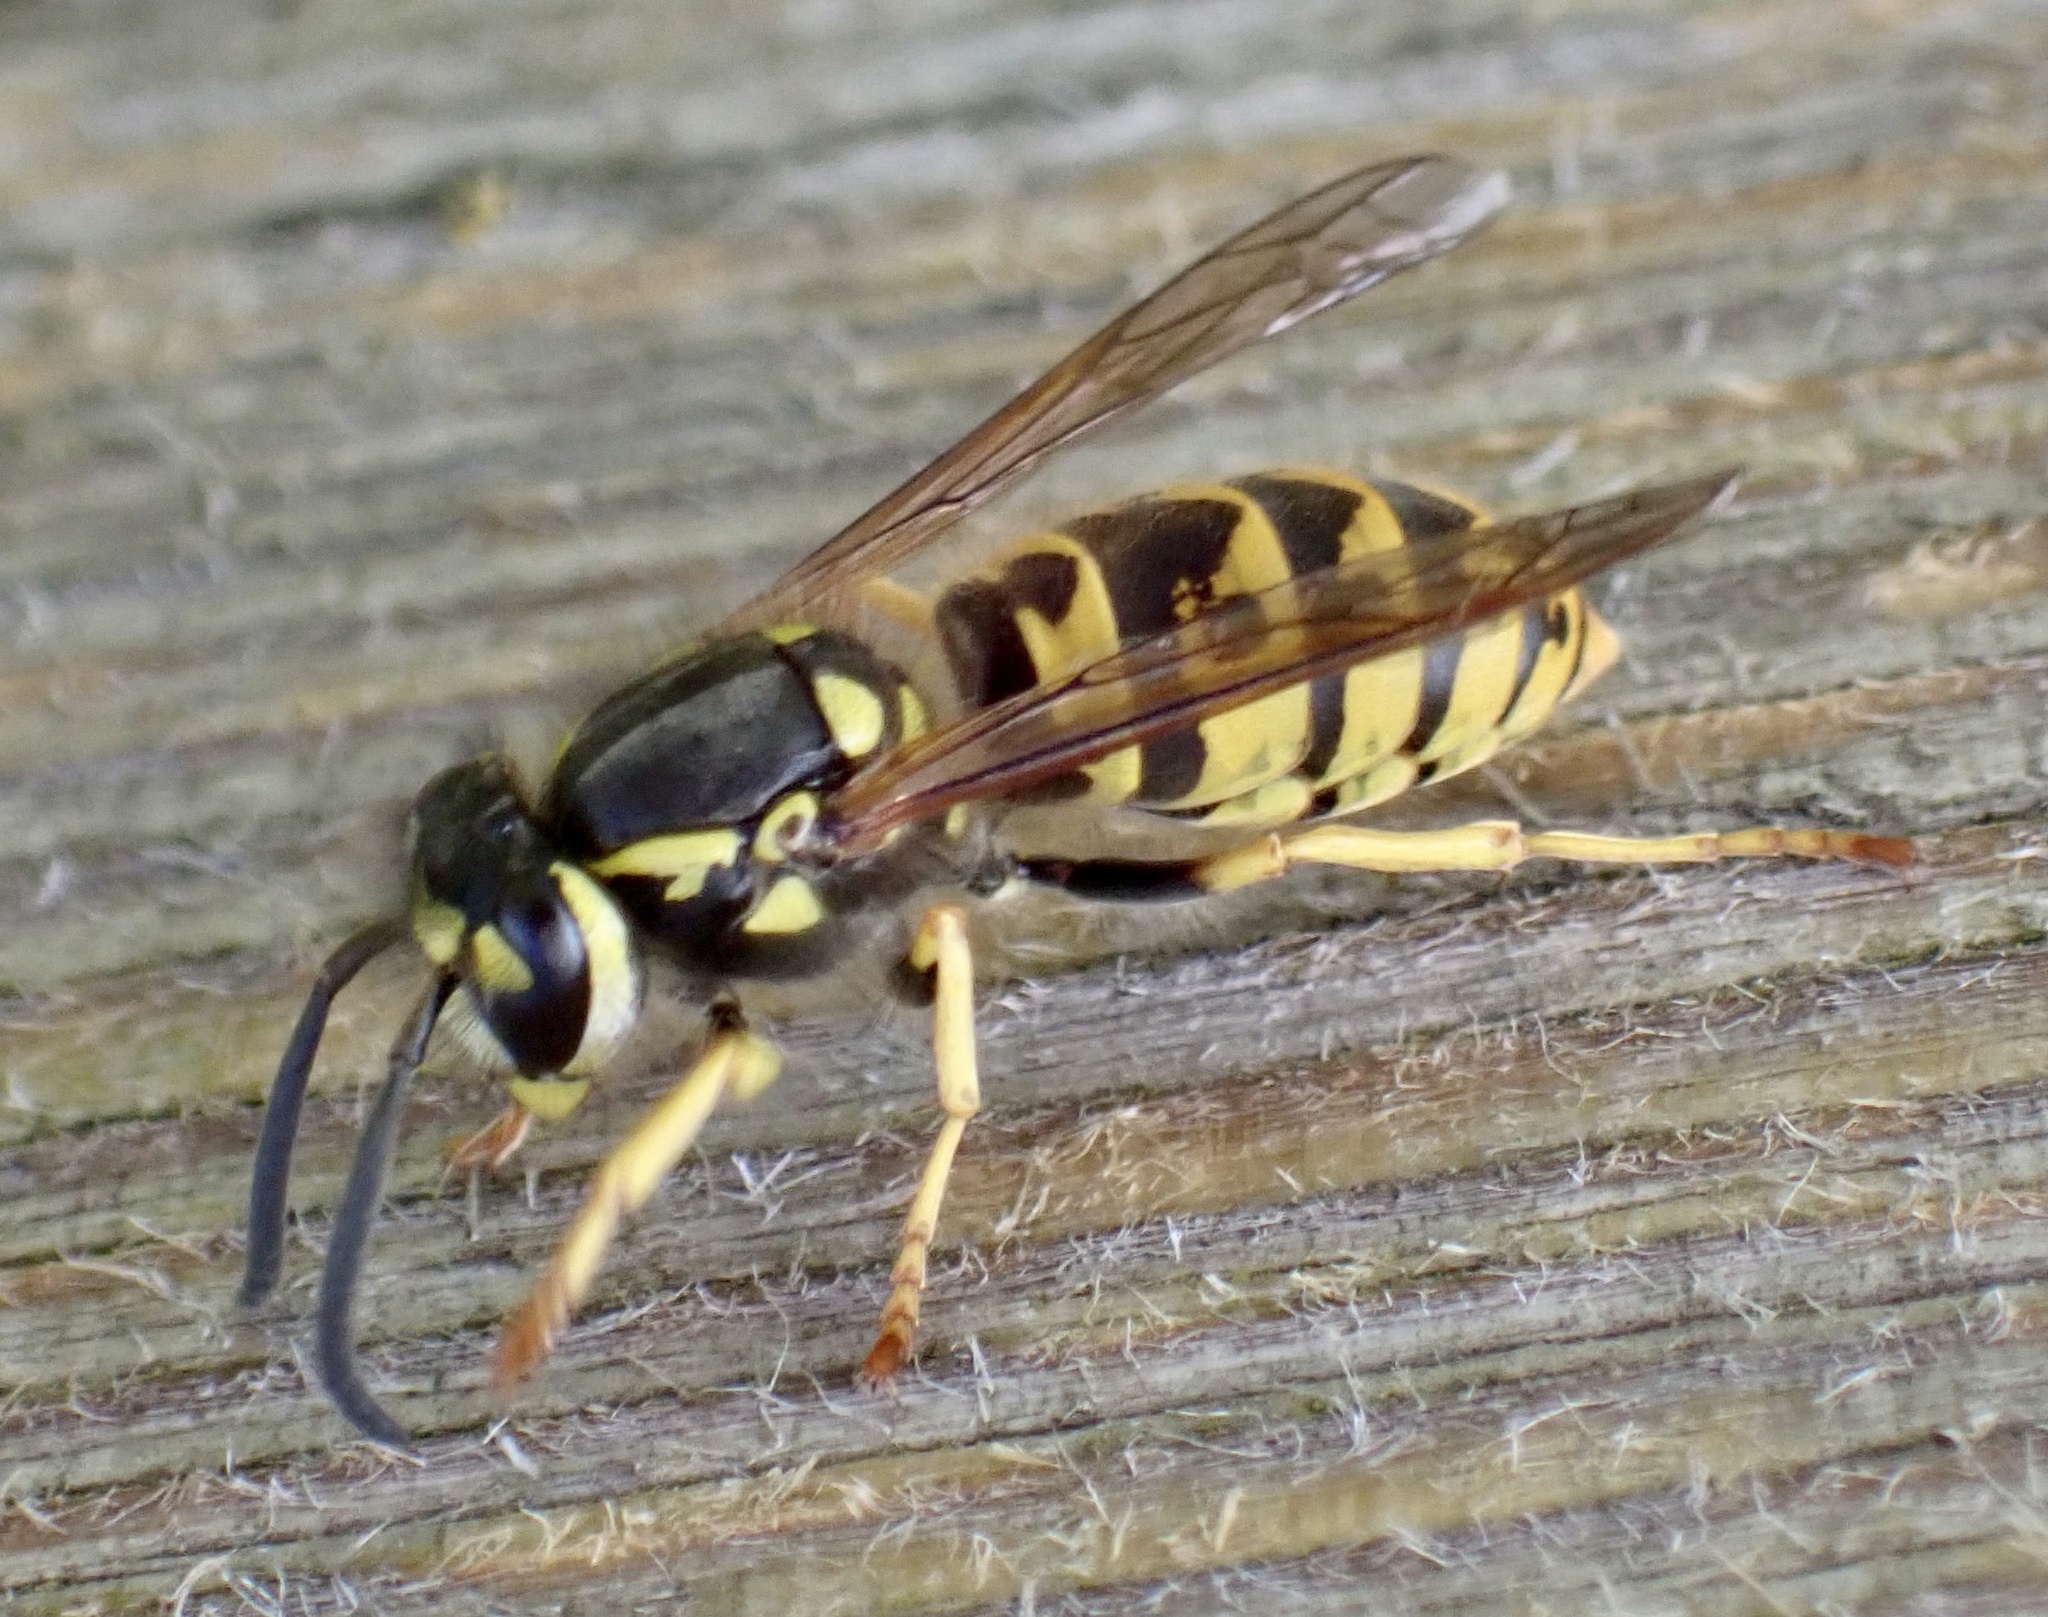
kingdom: Animalia
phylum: Arthropoda
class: Insecta
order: Hymenoptera
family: Vespidae
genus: Vespula
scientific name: Vespula germanica
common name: German wasp
